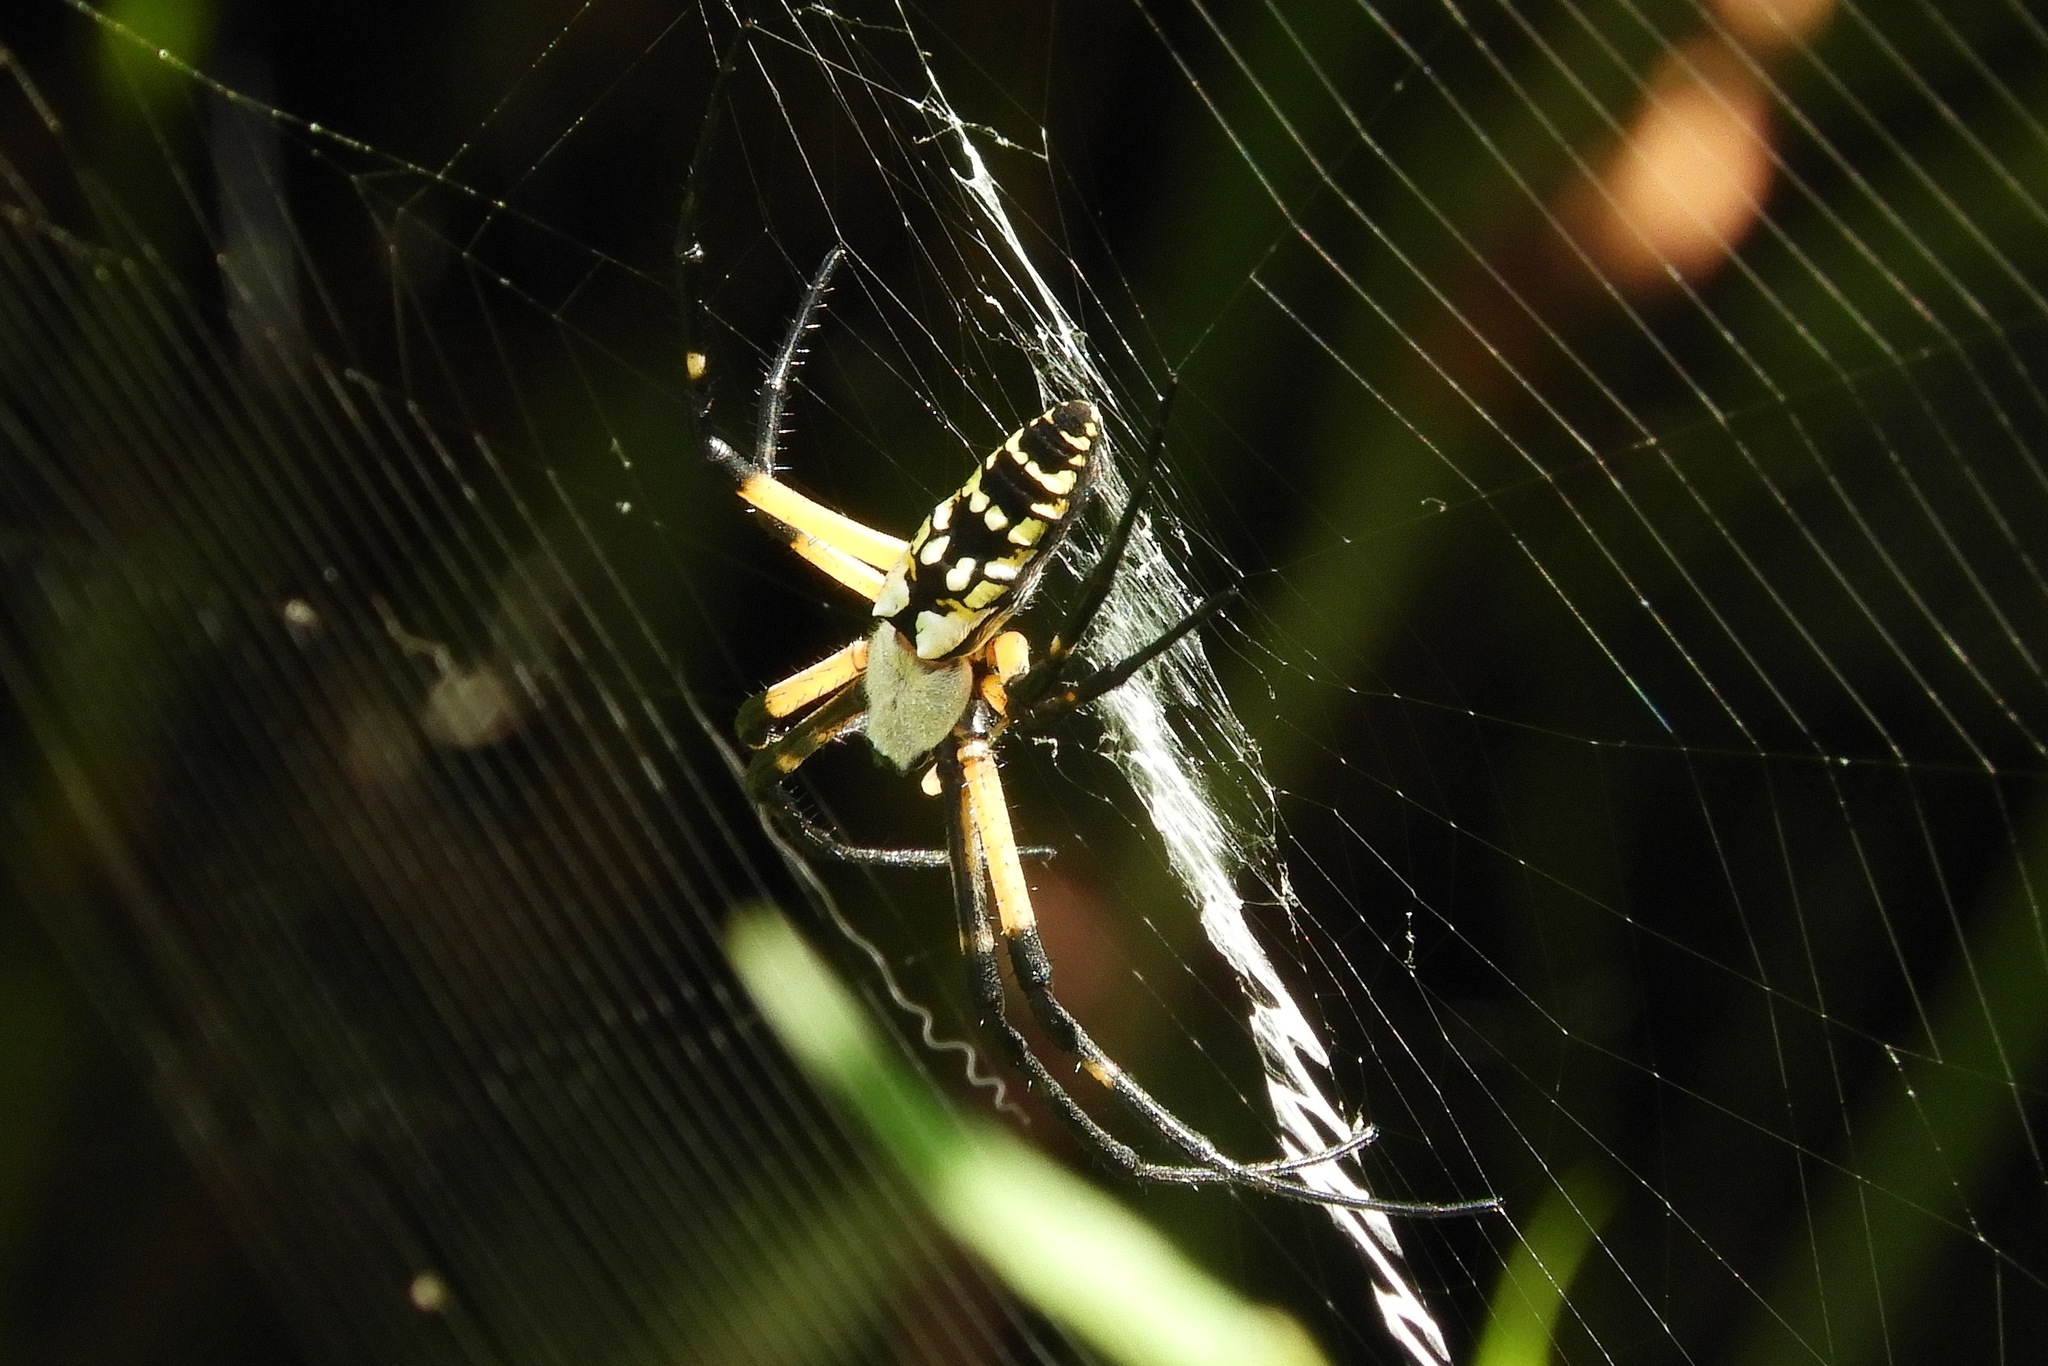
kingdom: Animalia
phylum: Arthropoda
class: Arachnida
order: Araneae
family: Araneidae
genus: Argiope
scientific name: Argiope aurantia
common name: Orb weavers
